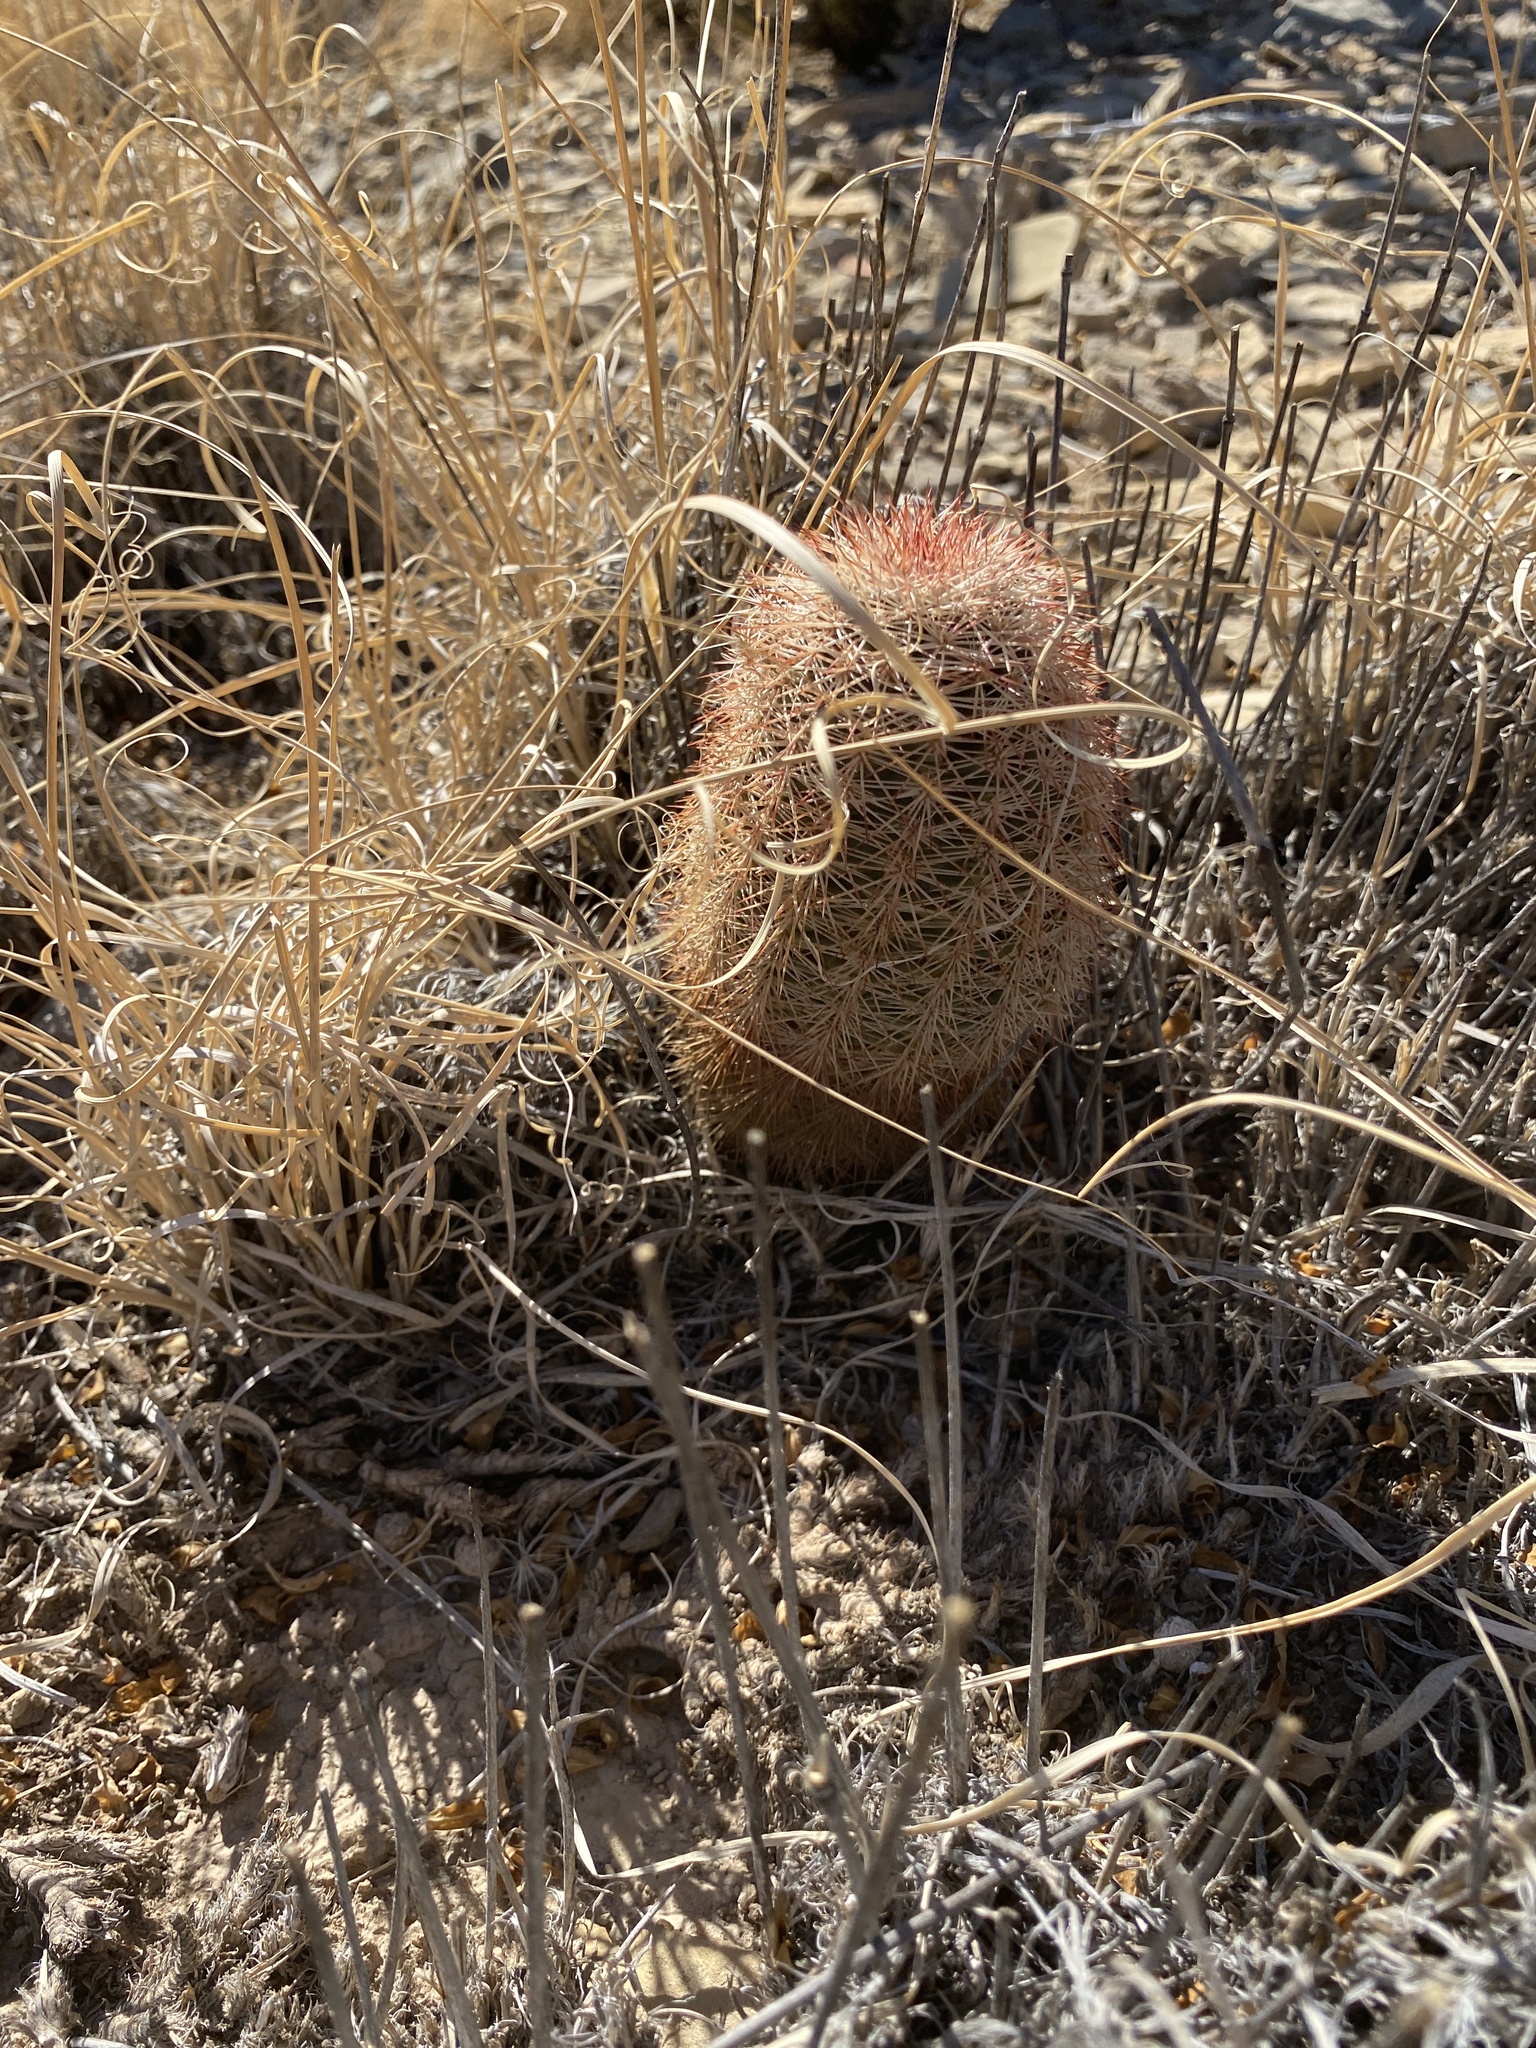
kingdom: Plantae
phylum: Tracheophyta
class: Magnoliopsida
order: Caryophyllales
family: Cactaceae
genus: Echinocereus
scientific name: Echinocereus dasyacanthus
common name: Spiny hedgehog cactus
